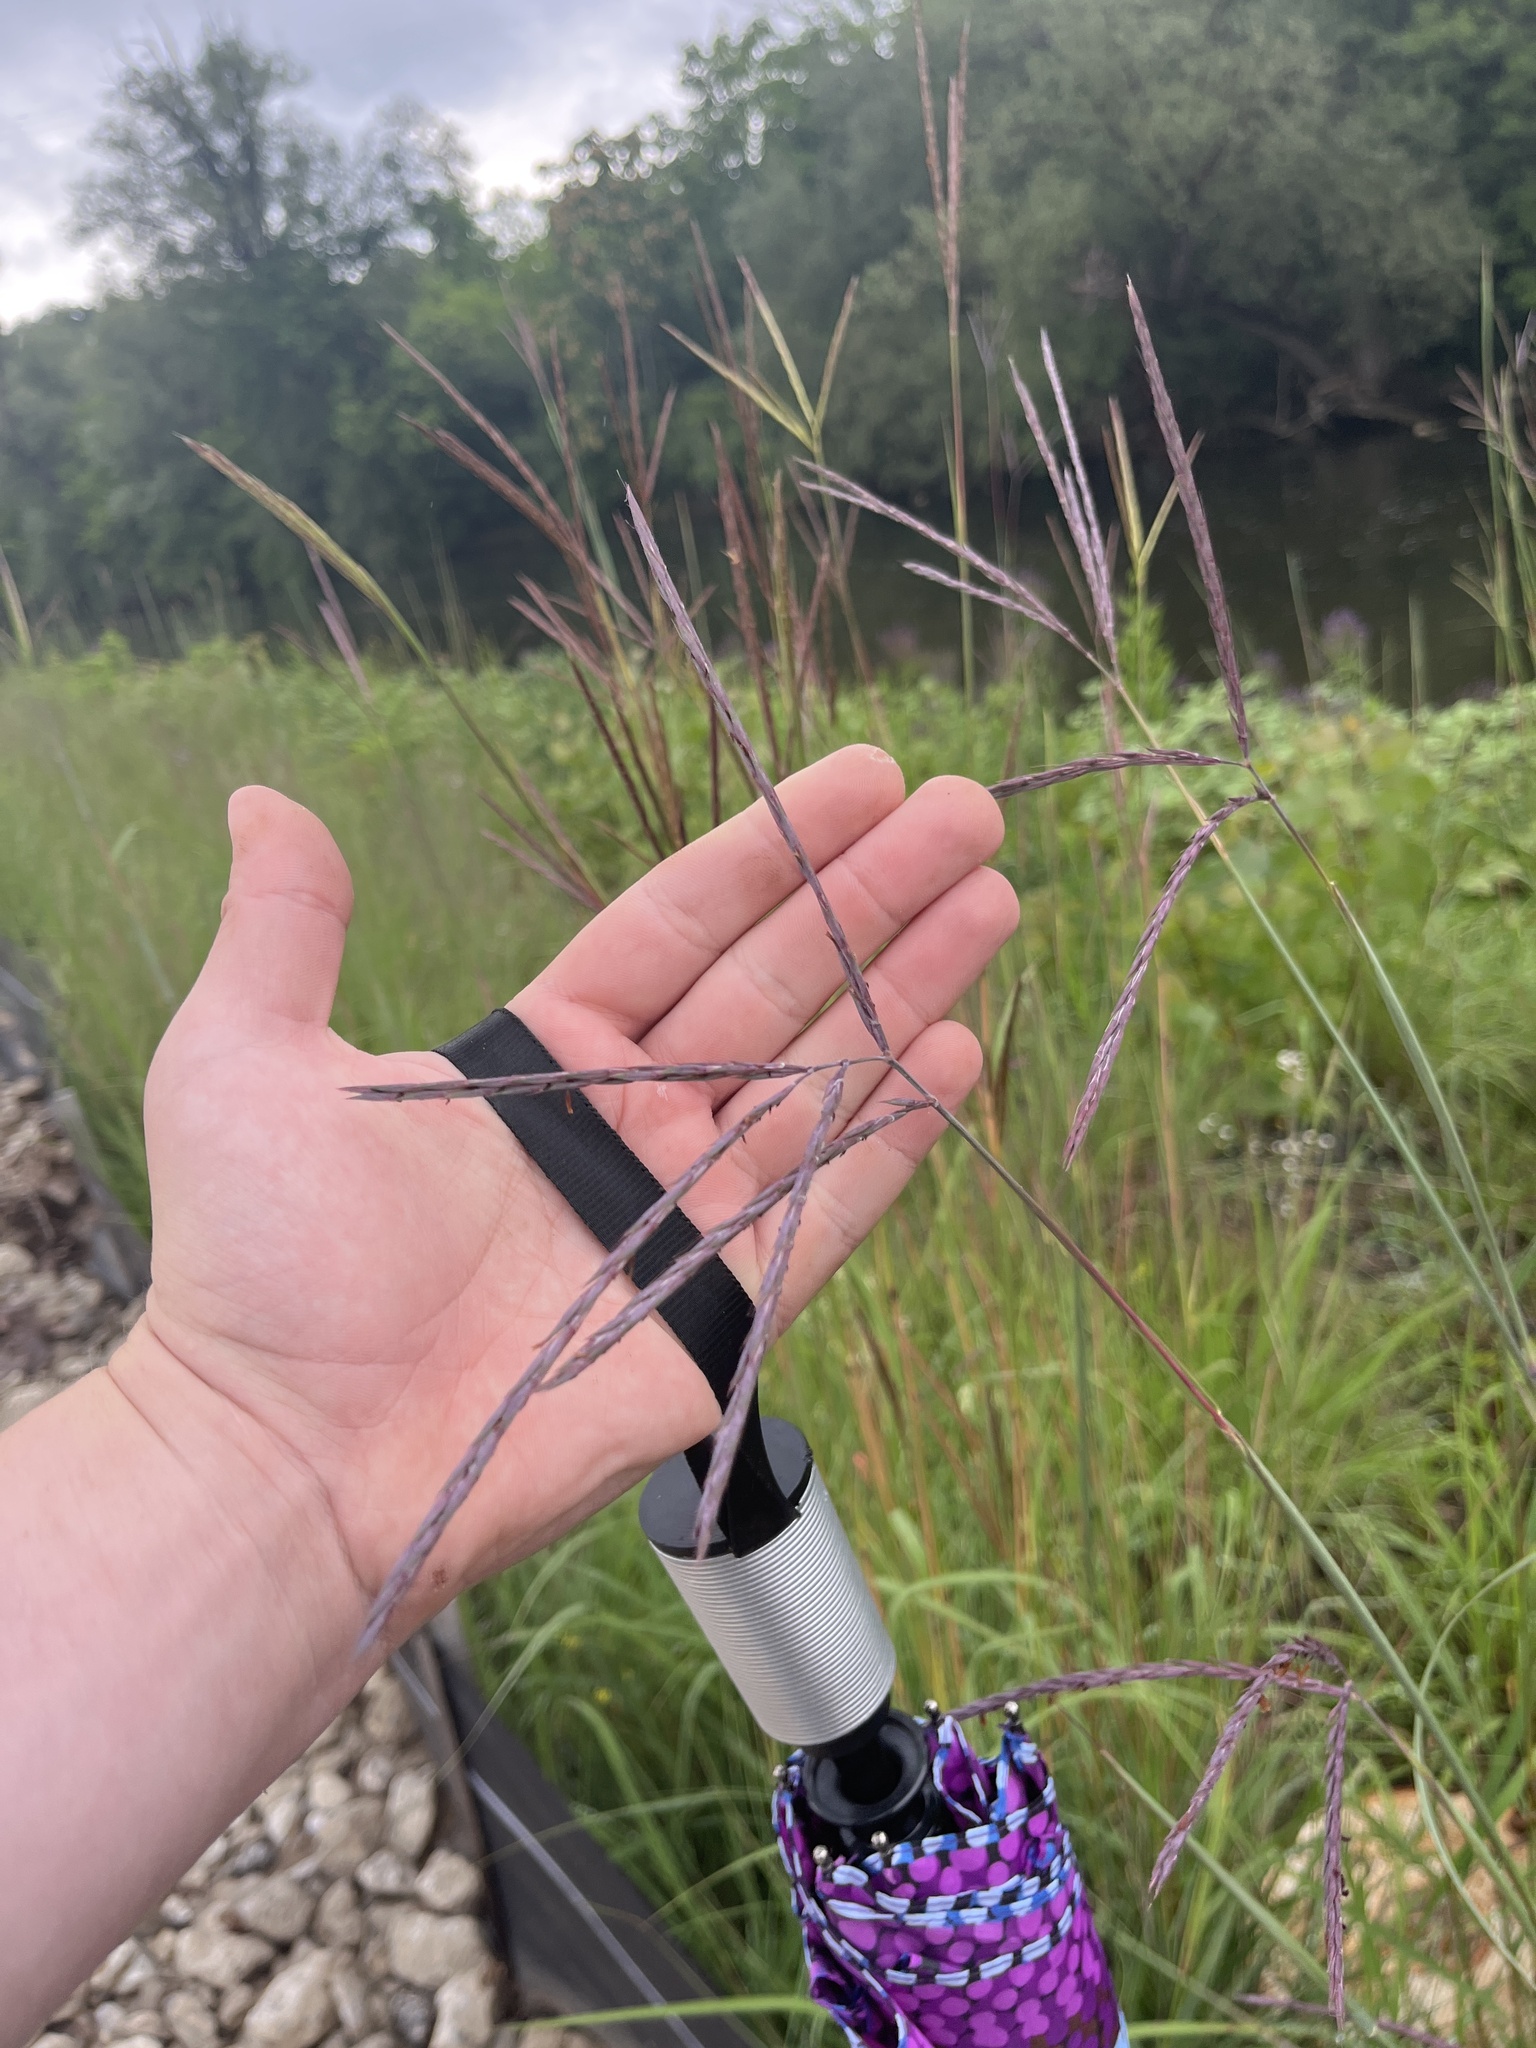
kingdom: Plantae
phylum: Tracheophyta
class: Liliopsida
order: Poales
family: Poaceae
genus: Andropogon
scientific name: Andropogon gerardi
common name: Big bluestem
